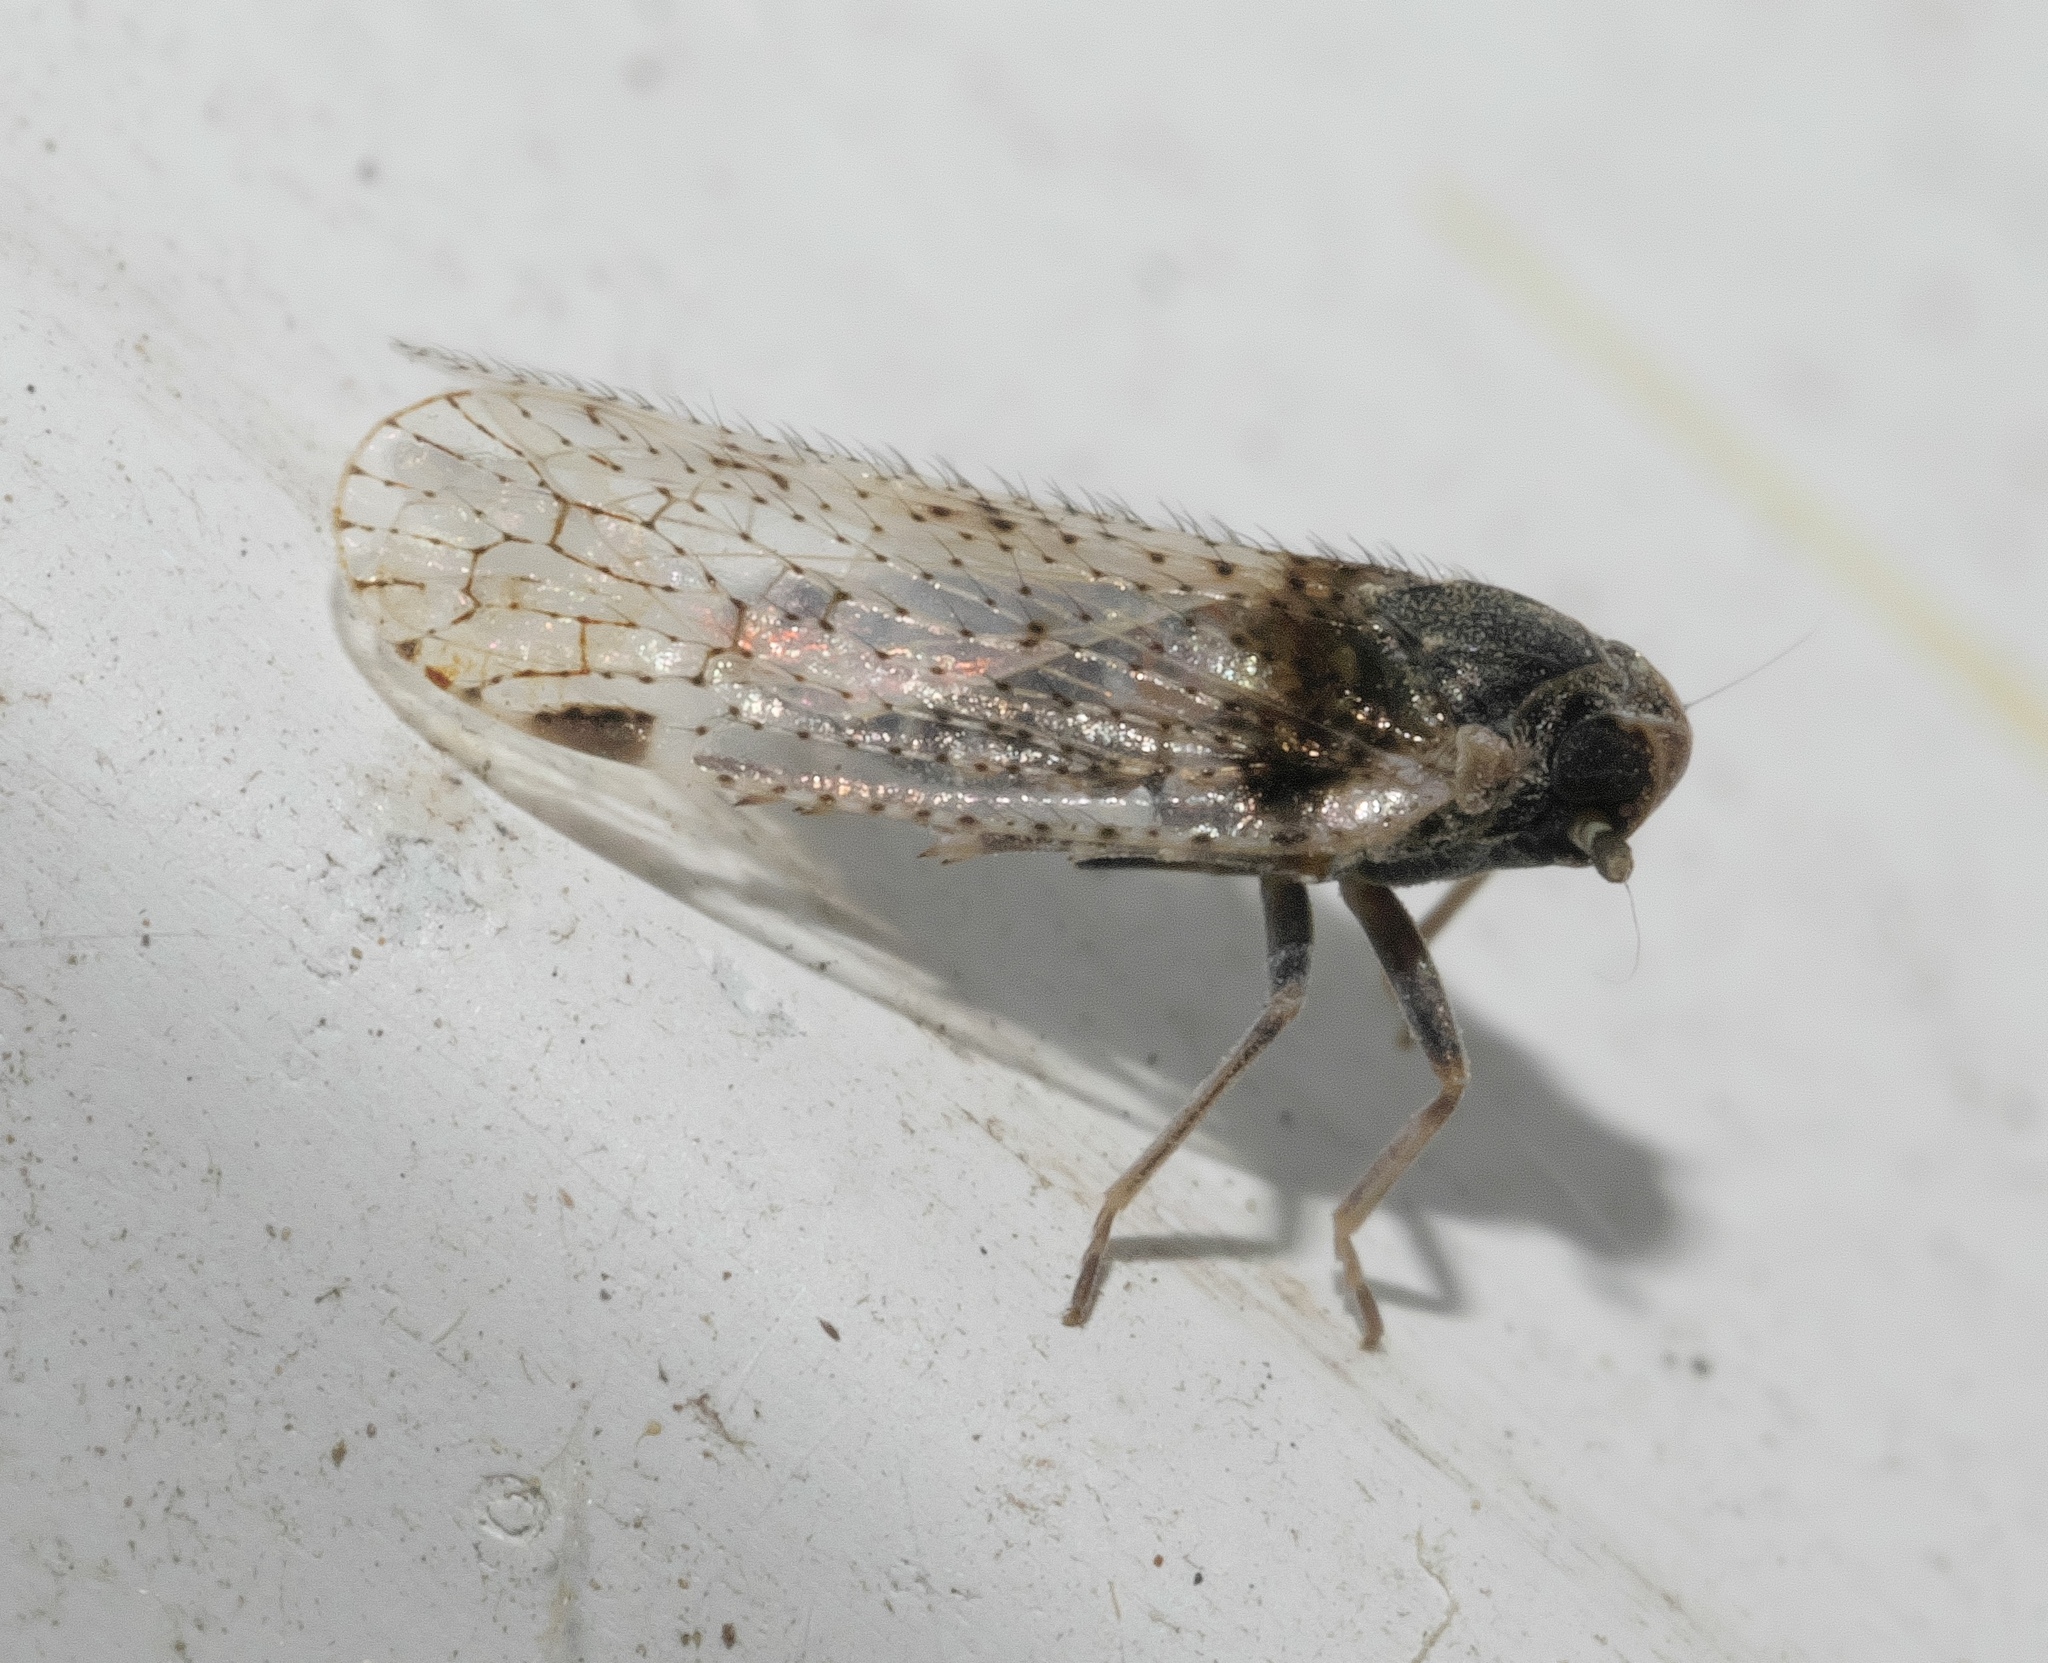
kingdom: Animalia
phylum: Arthropoda
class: Insecta
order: Hemiptera
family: Cixiidae
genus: Cixius
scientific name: Cixius stigmatus
